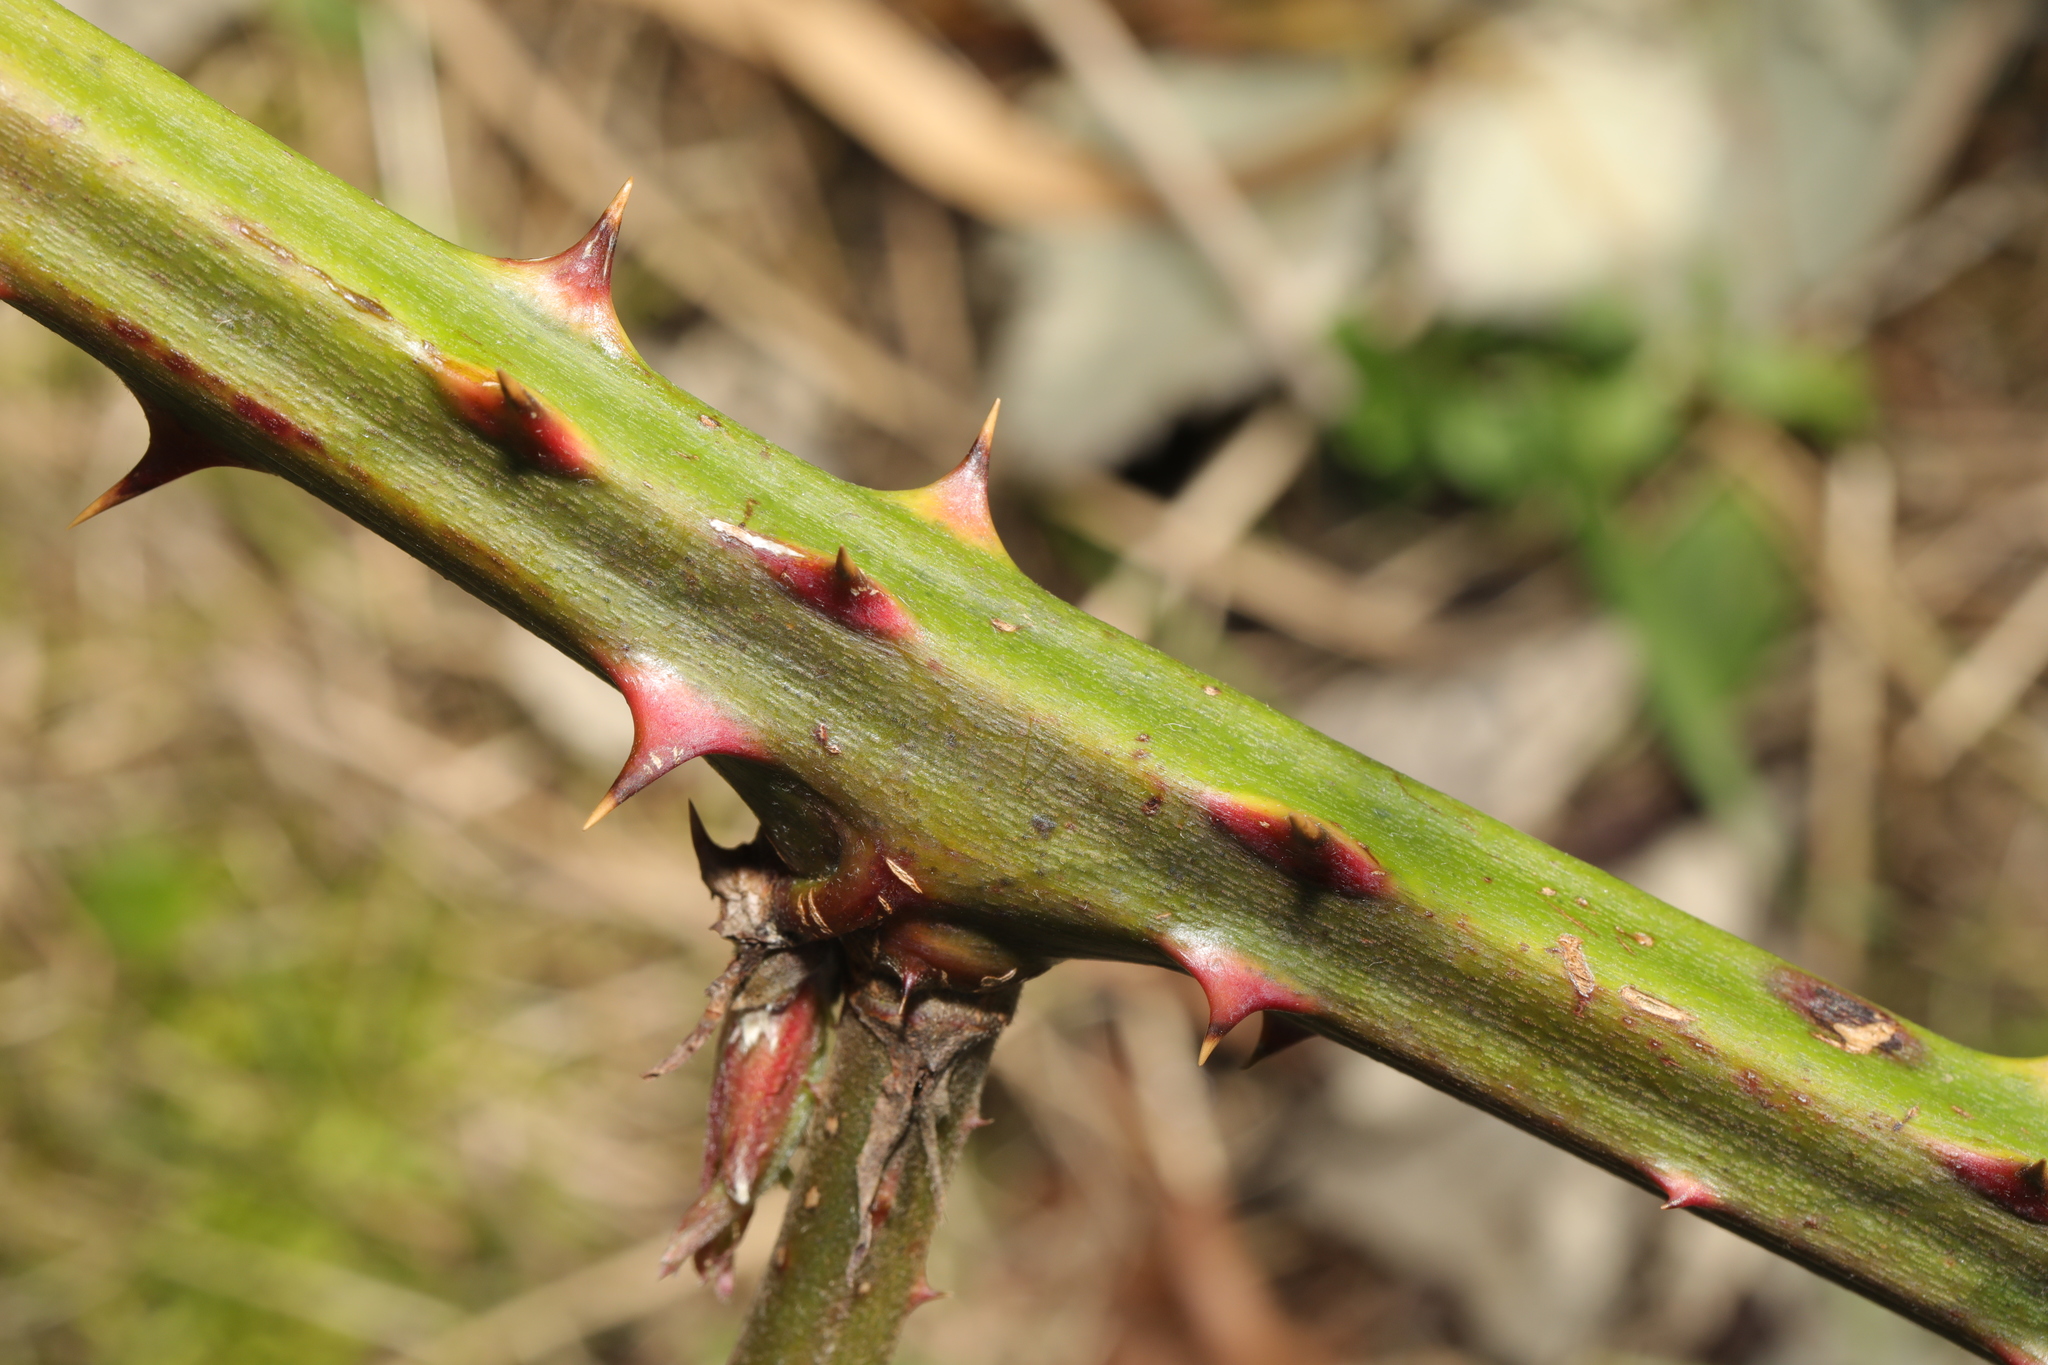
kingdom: Plantae
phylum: Tracheophyta
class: Magnoliopsida
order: Rosales
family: Rosaceae
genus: Rubus
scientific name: Rubus armeniacus
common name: Himalayan blackberry
